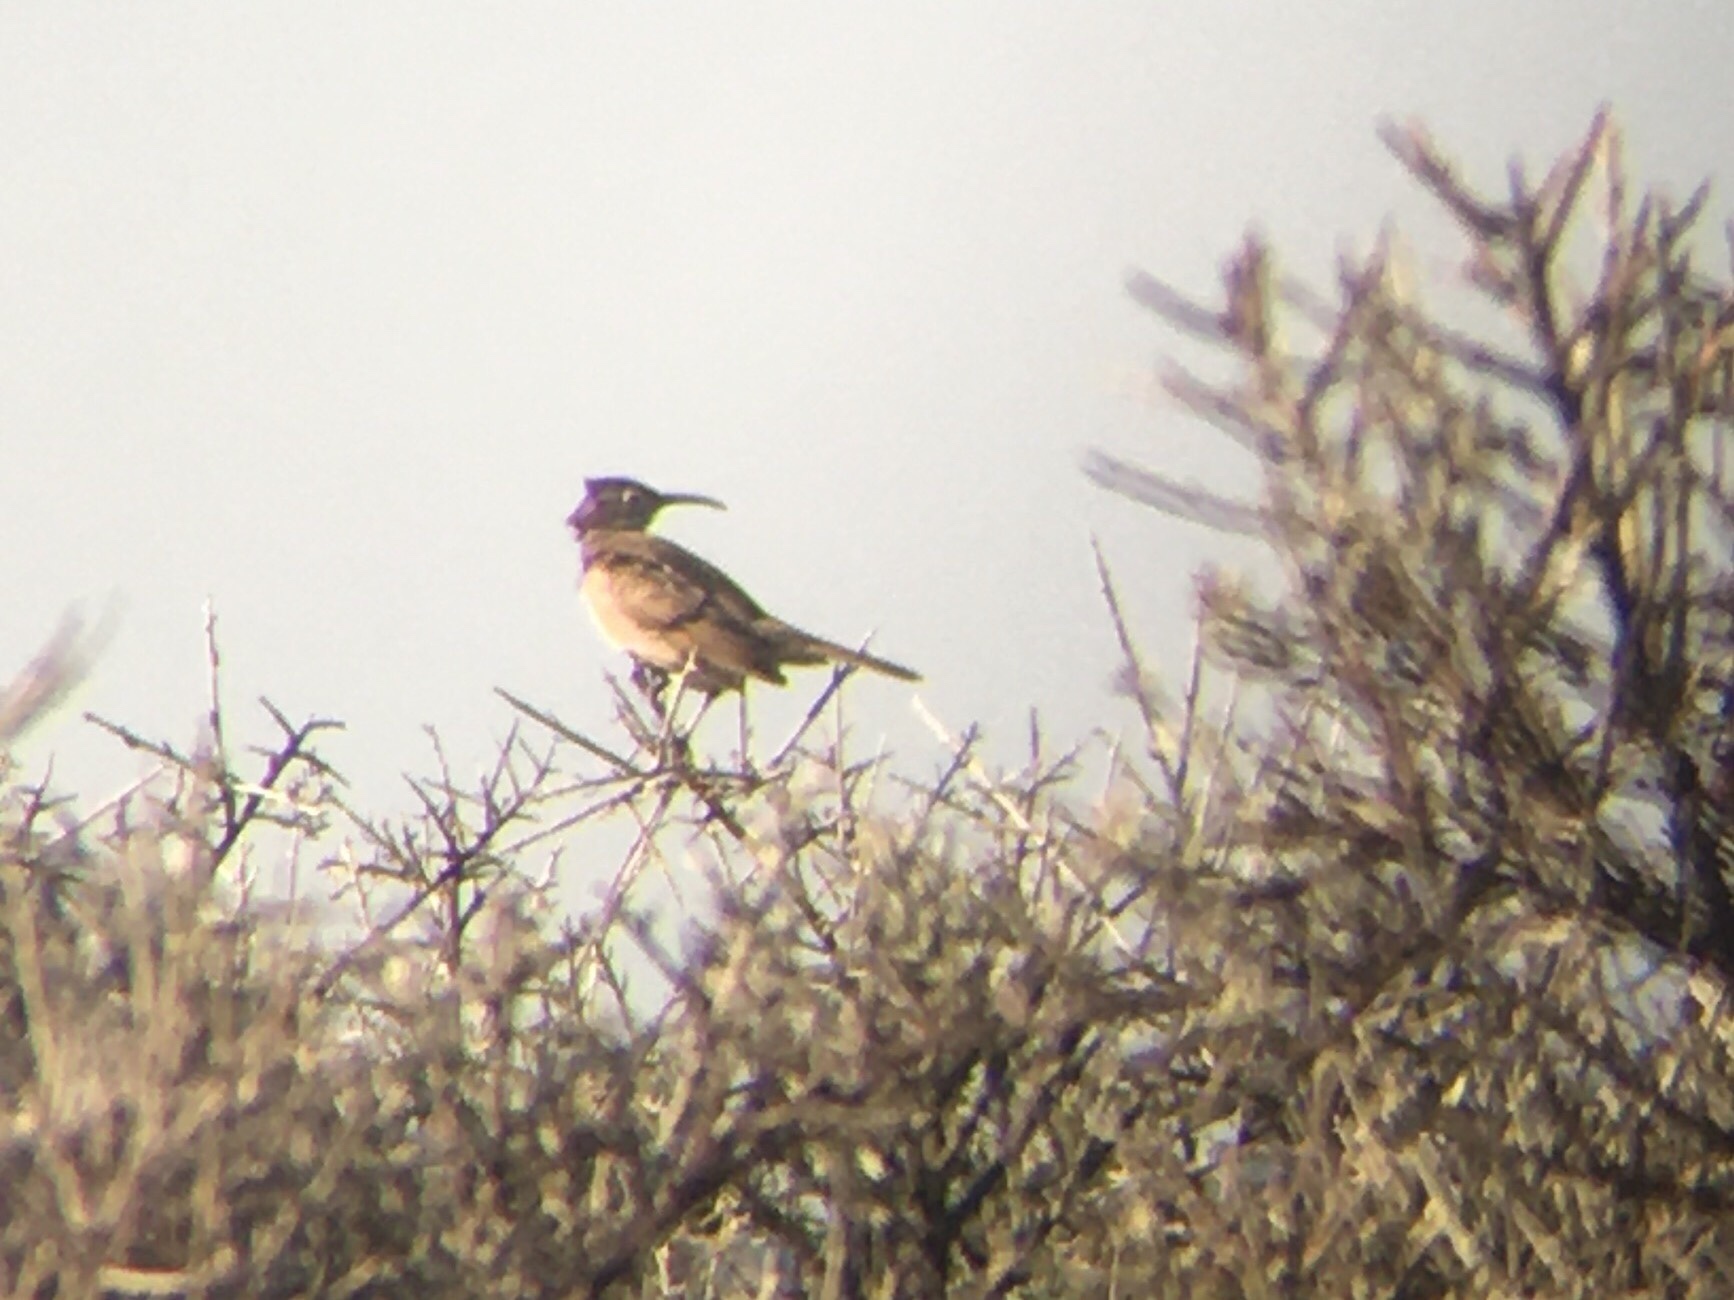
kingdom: Animalia
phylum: Chordata
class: Aves
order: Passeriformes
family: Furnariidae
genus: Upucerthia
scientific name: Upucerthia dumetaria
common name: Scale-throated earthcreeper
